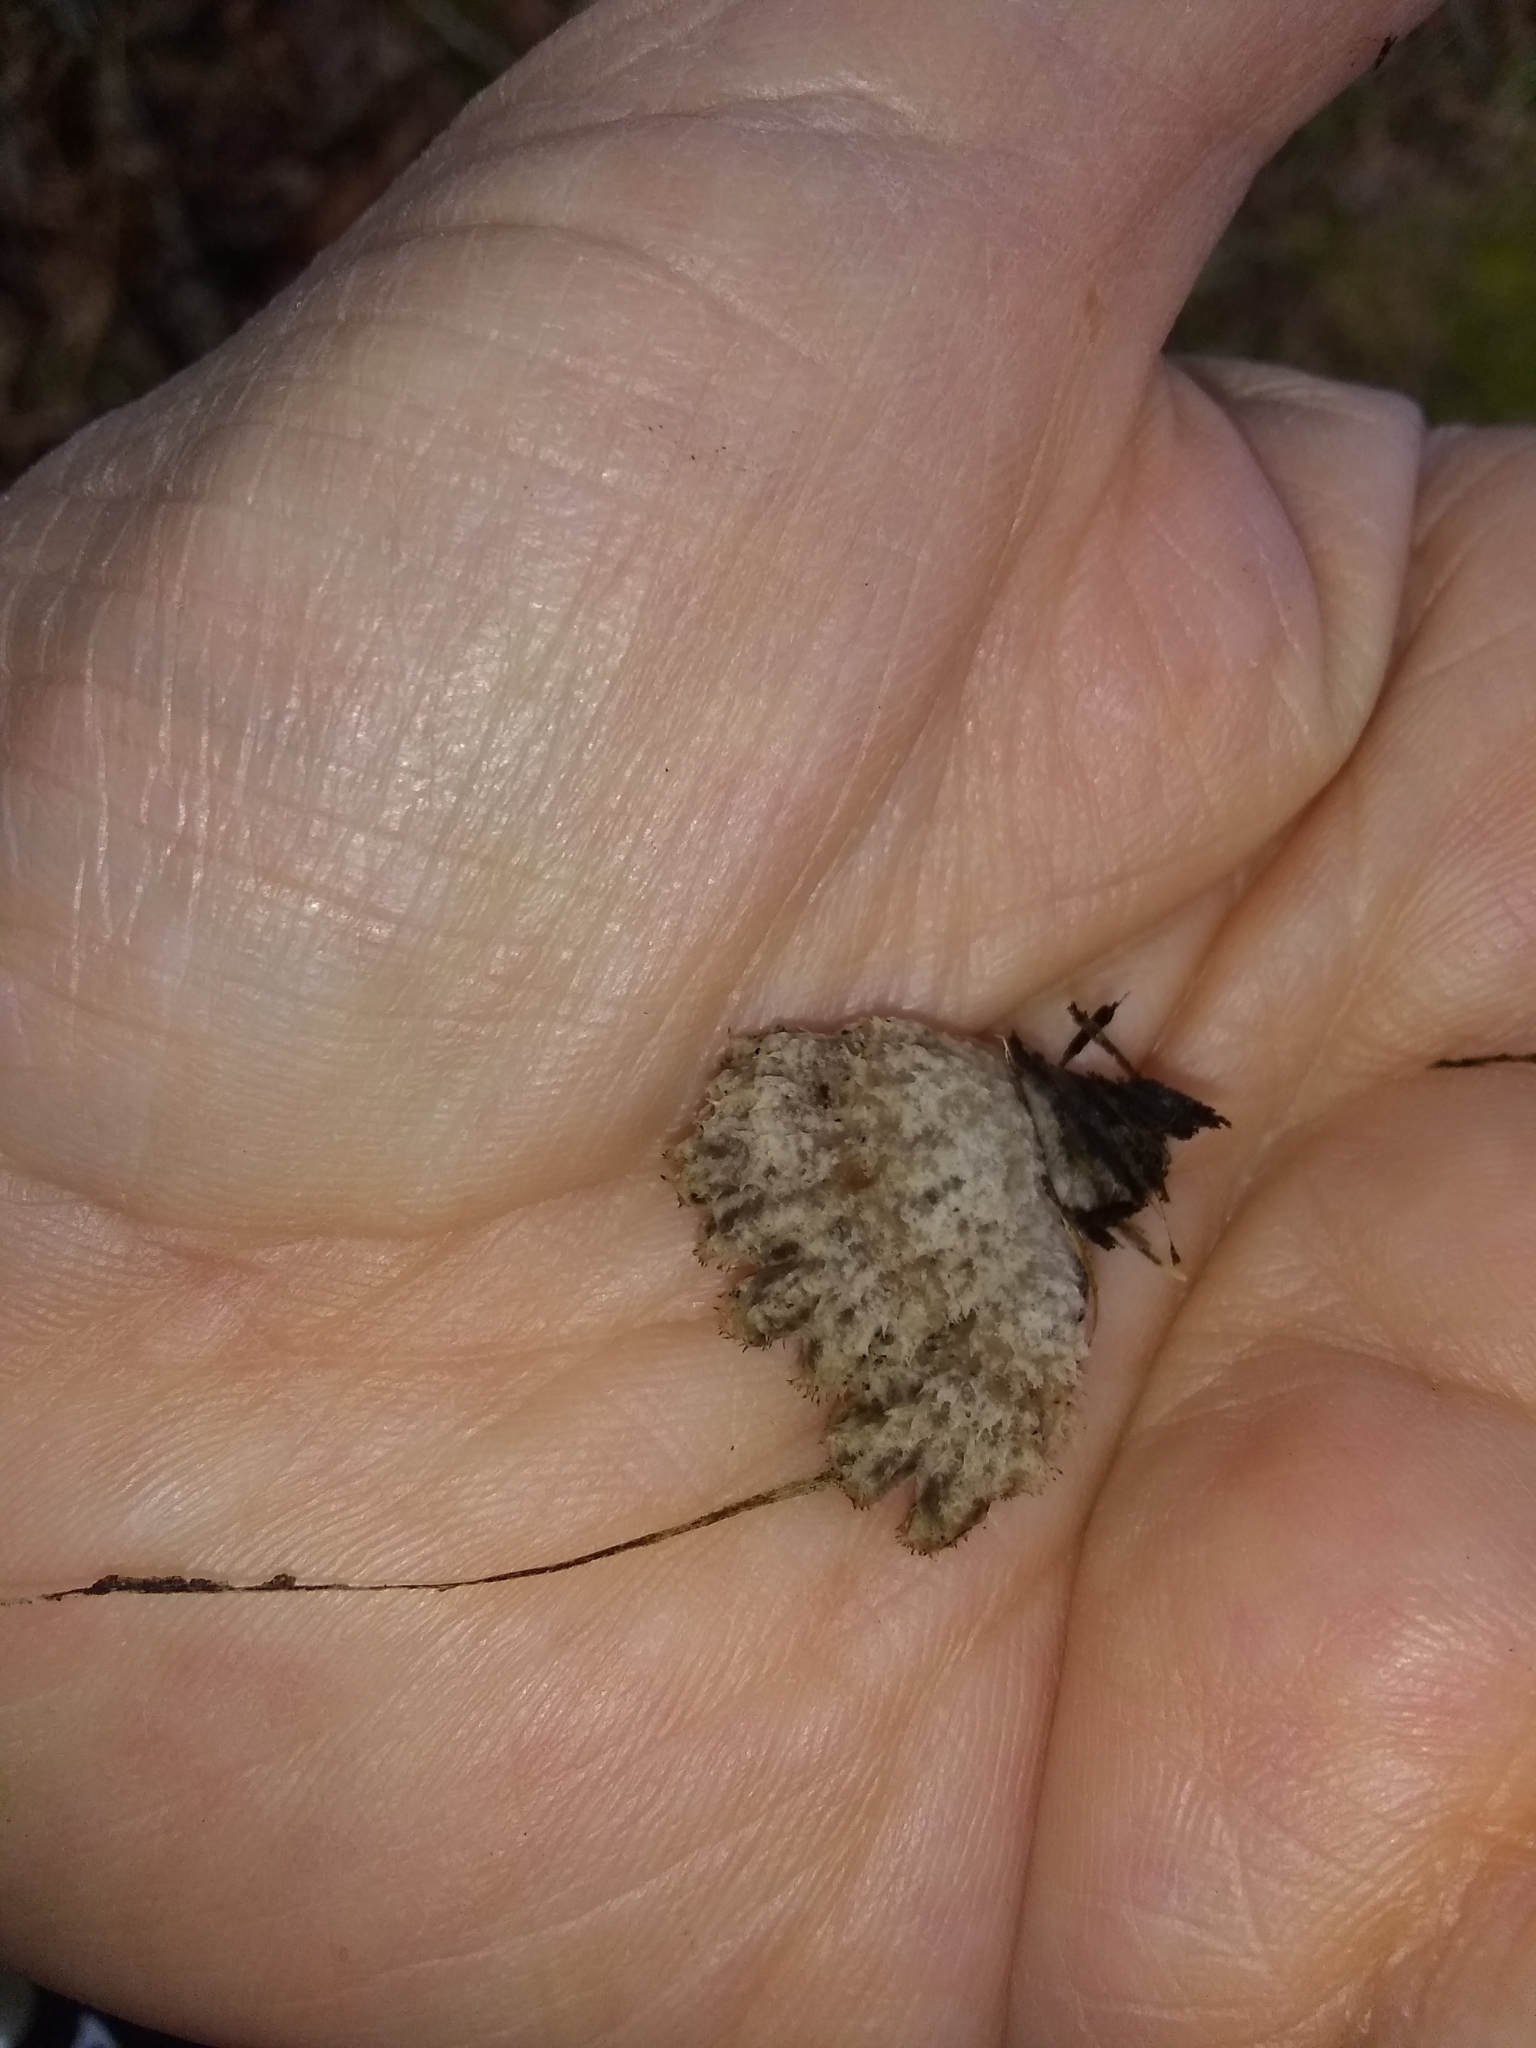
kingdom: Fungi
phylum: Basidiomycota
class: Agaricomycetes
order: Agaricales
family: Schizophyllaceae
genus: Schizophyllum
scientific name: Schizophyllum commune
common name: Common porecrust
